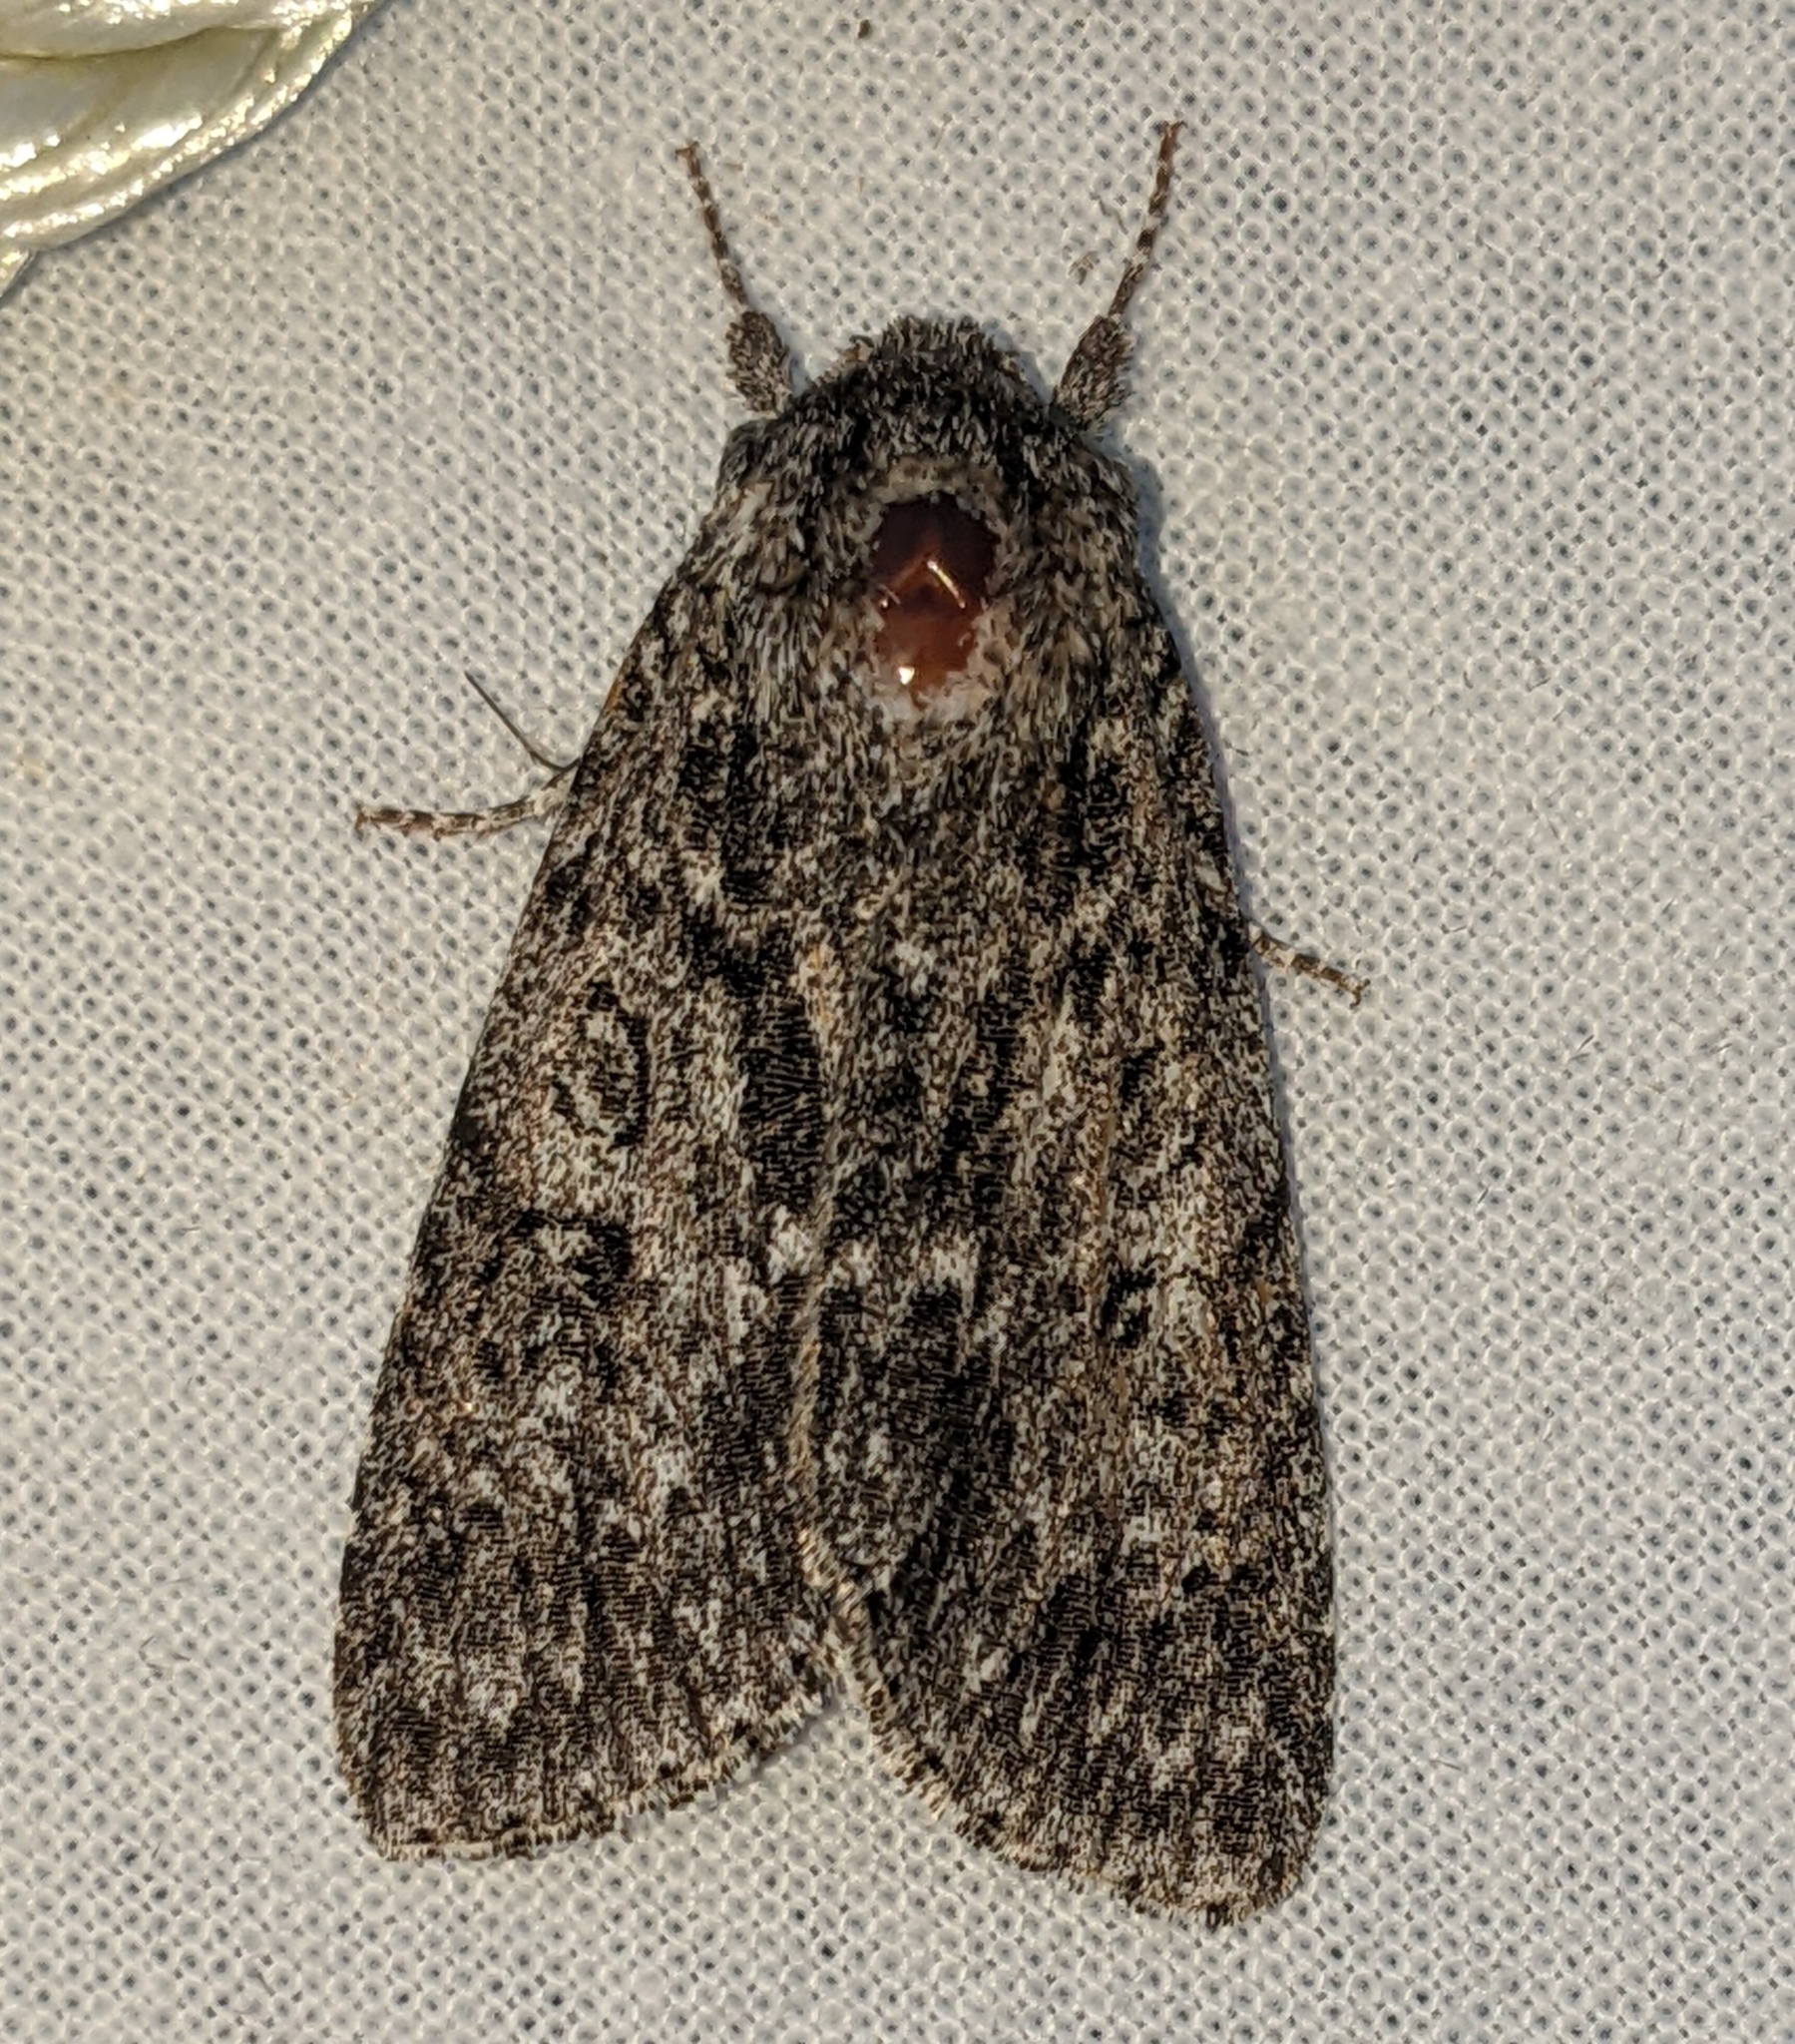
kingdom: Animalia
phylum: Arthropoda
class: Insecta
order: Lepidoptera
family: Noctuidae
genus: Acronicta
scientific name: Acronicta impleta
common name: Powdered dagger
